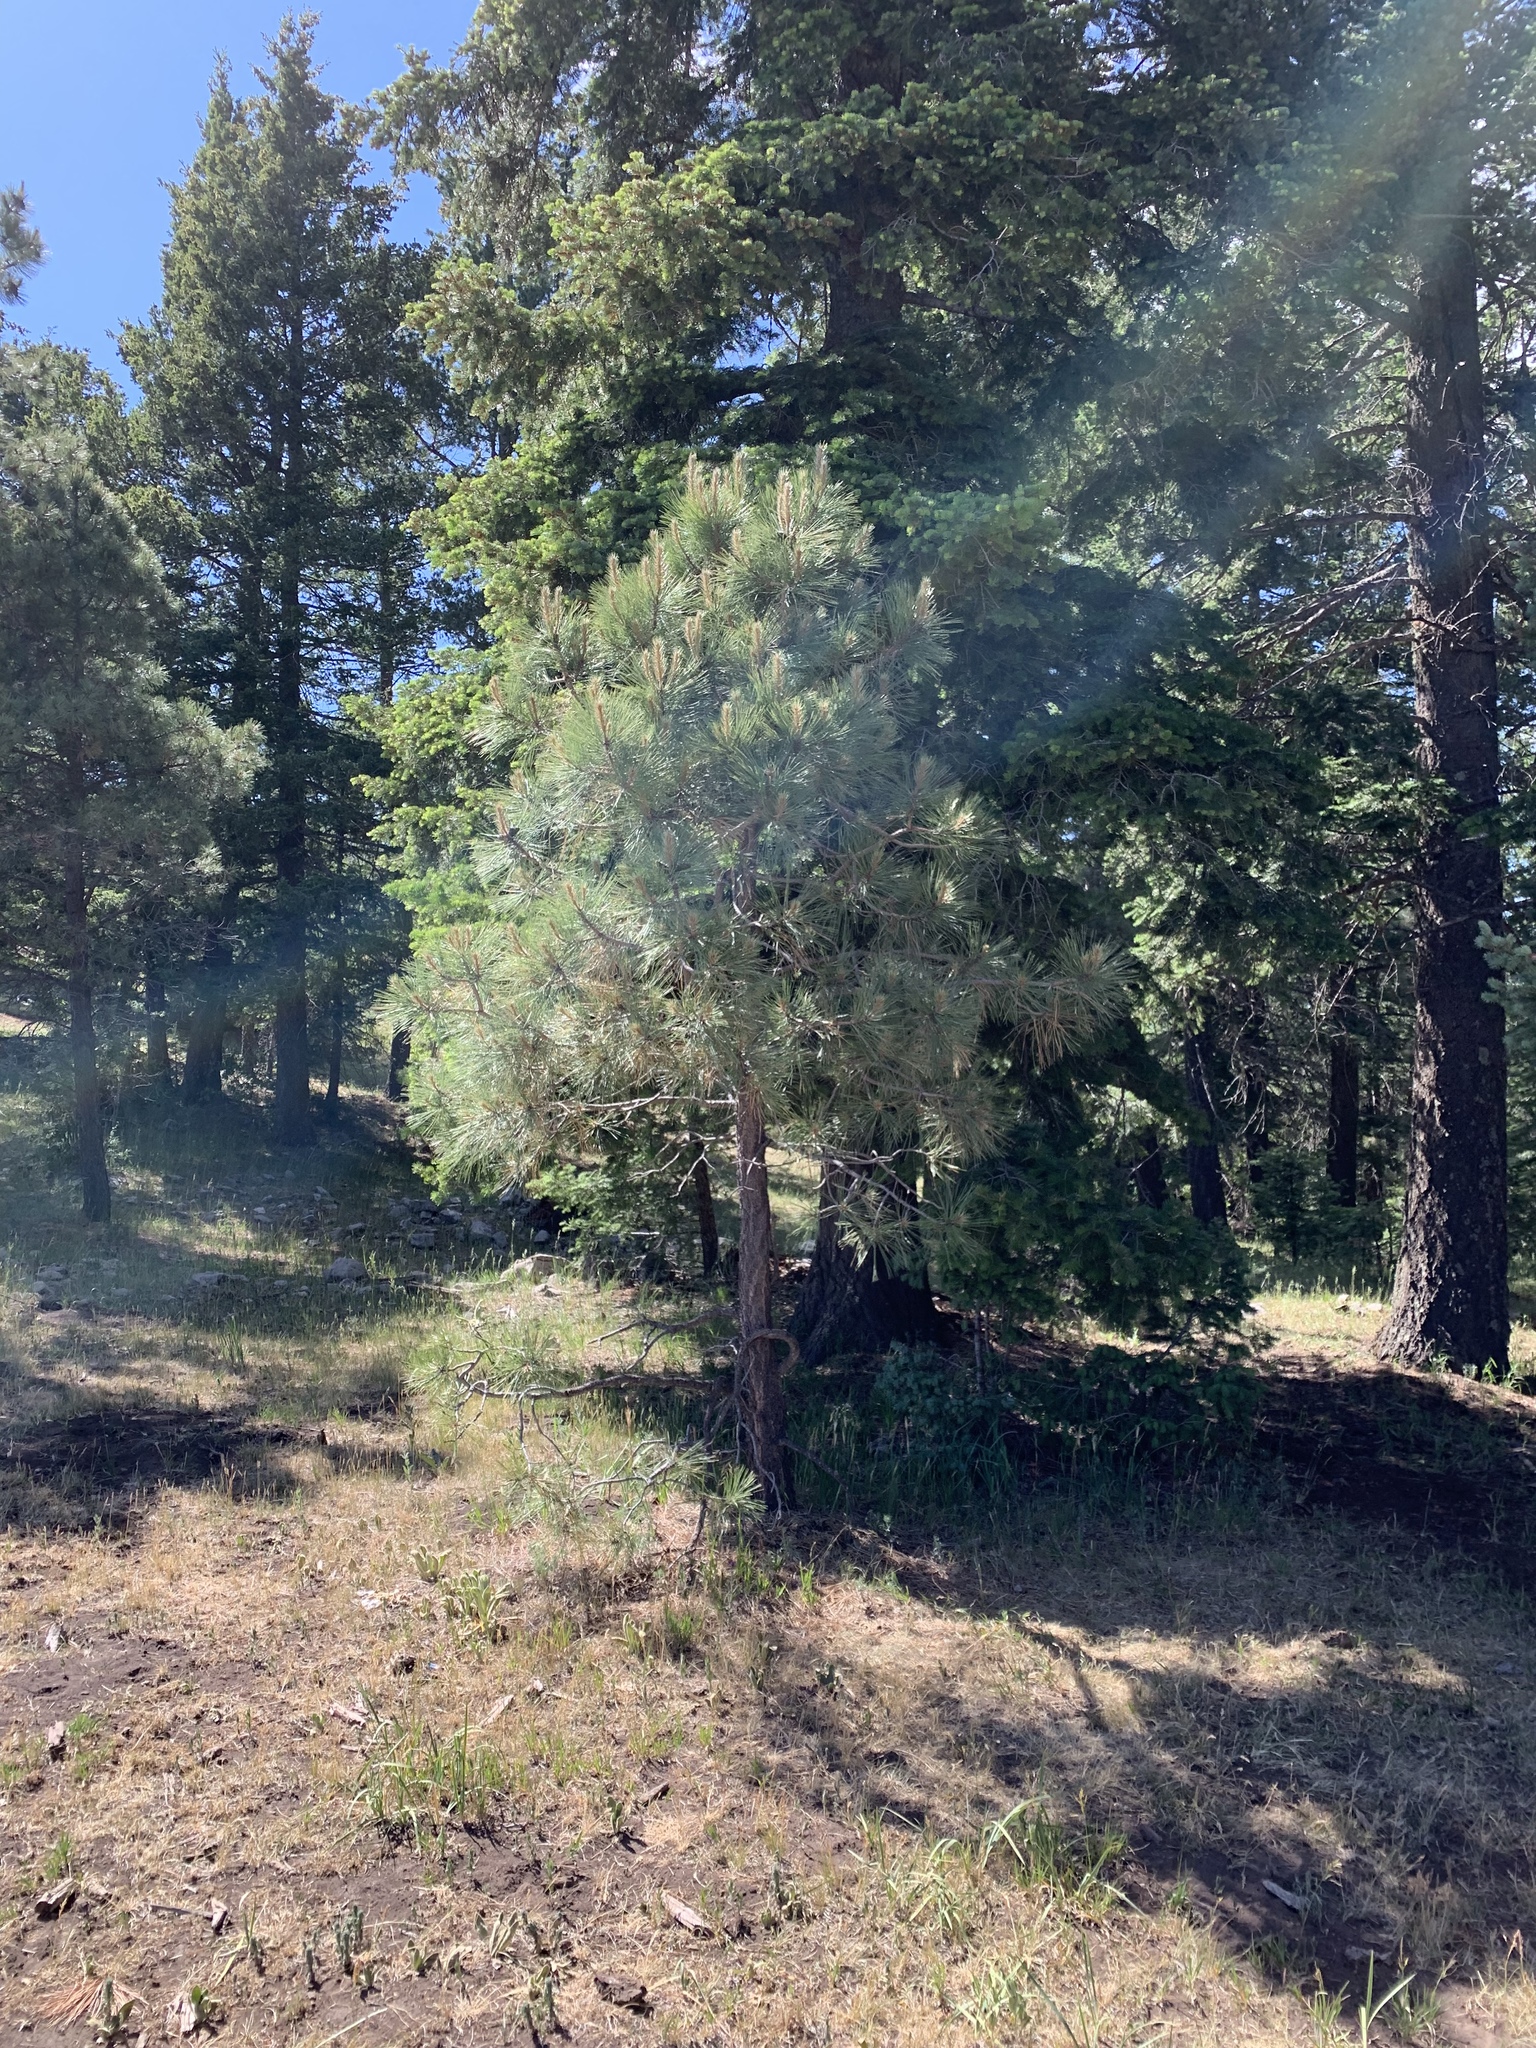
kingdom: Plantae
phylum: Tracheophyta
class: Pinopsida
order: Pinales
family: Pinaceae
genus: Pinus
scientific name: Pinus ponderosa
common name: Western yellow-pine
